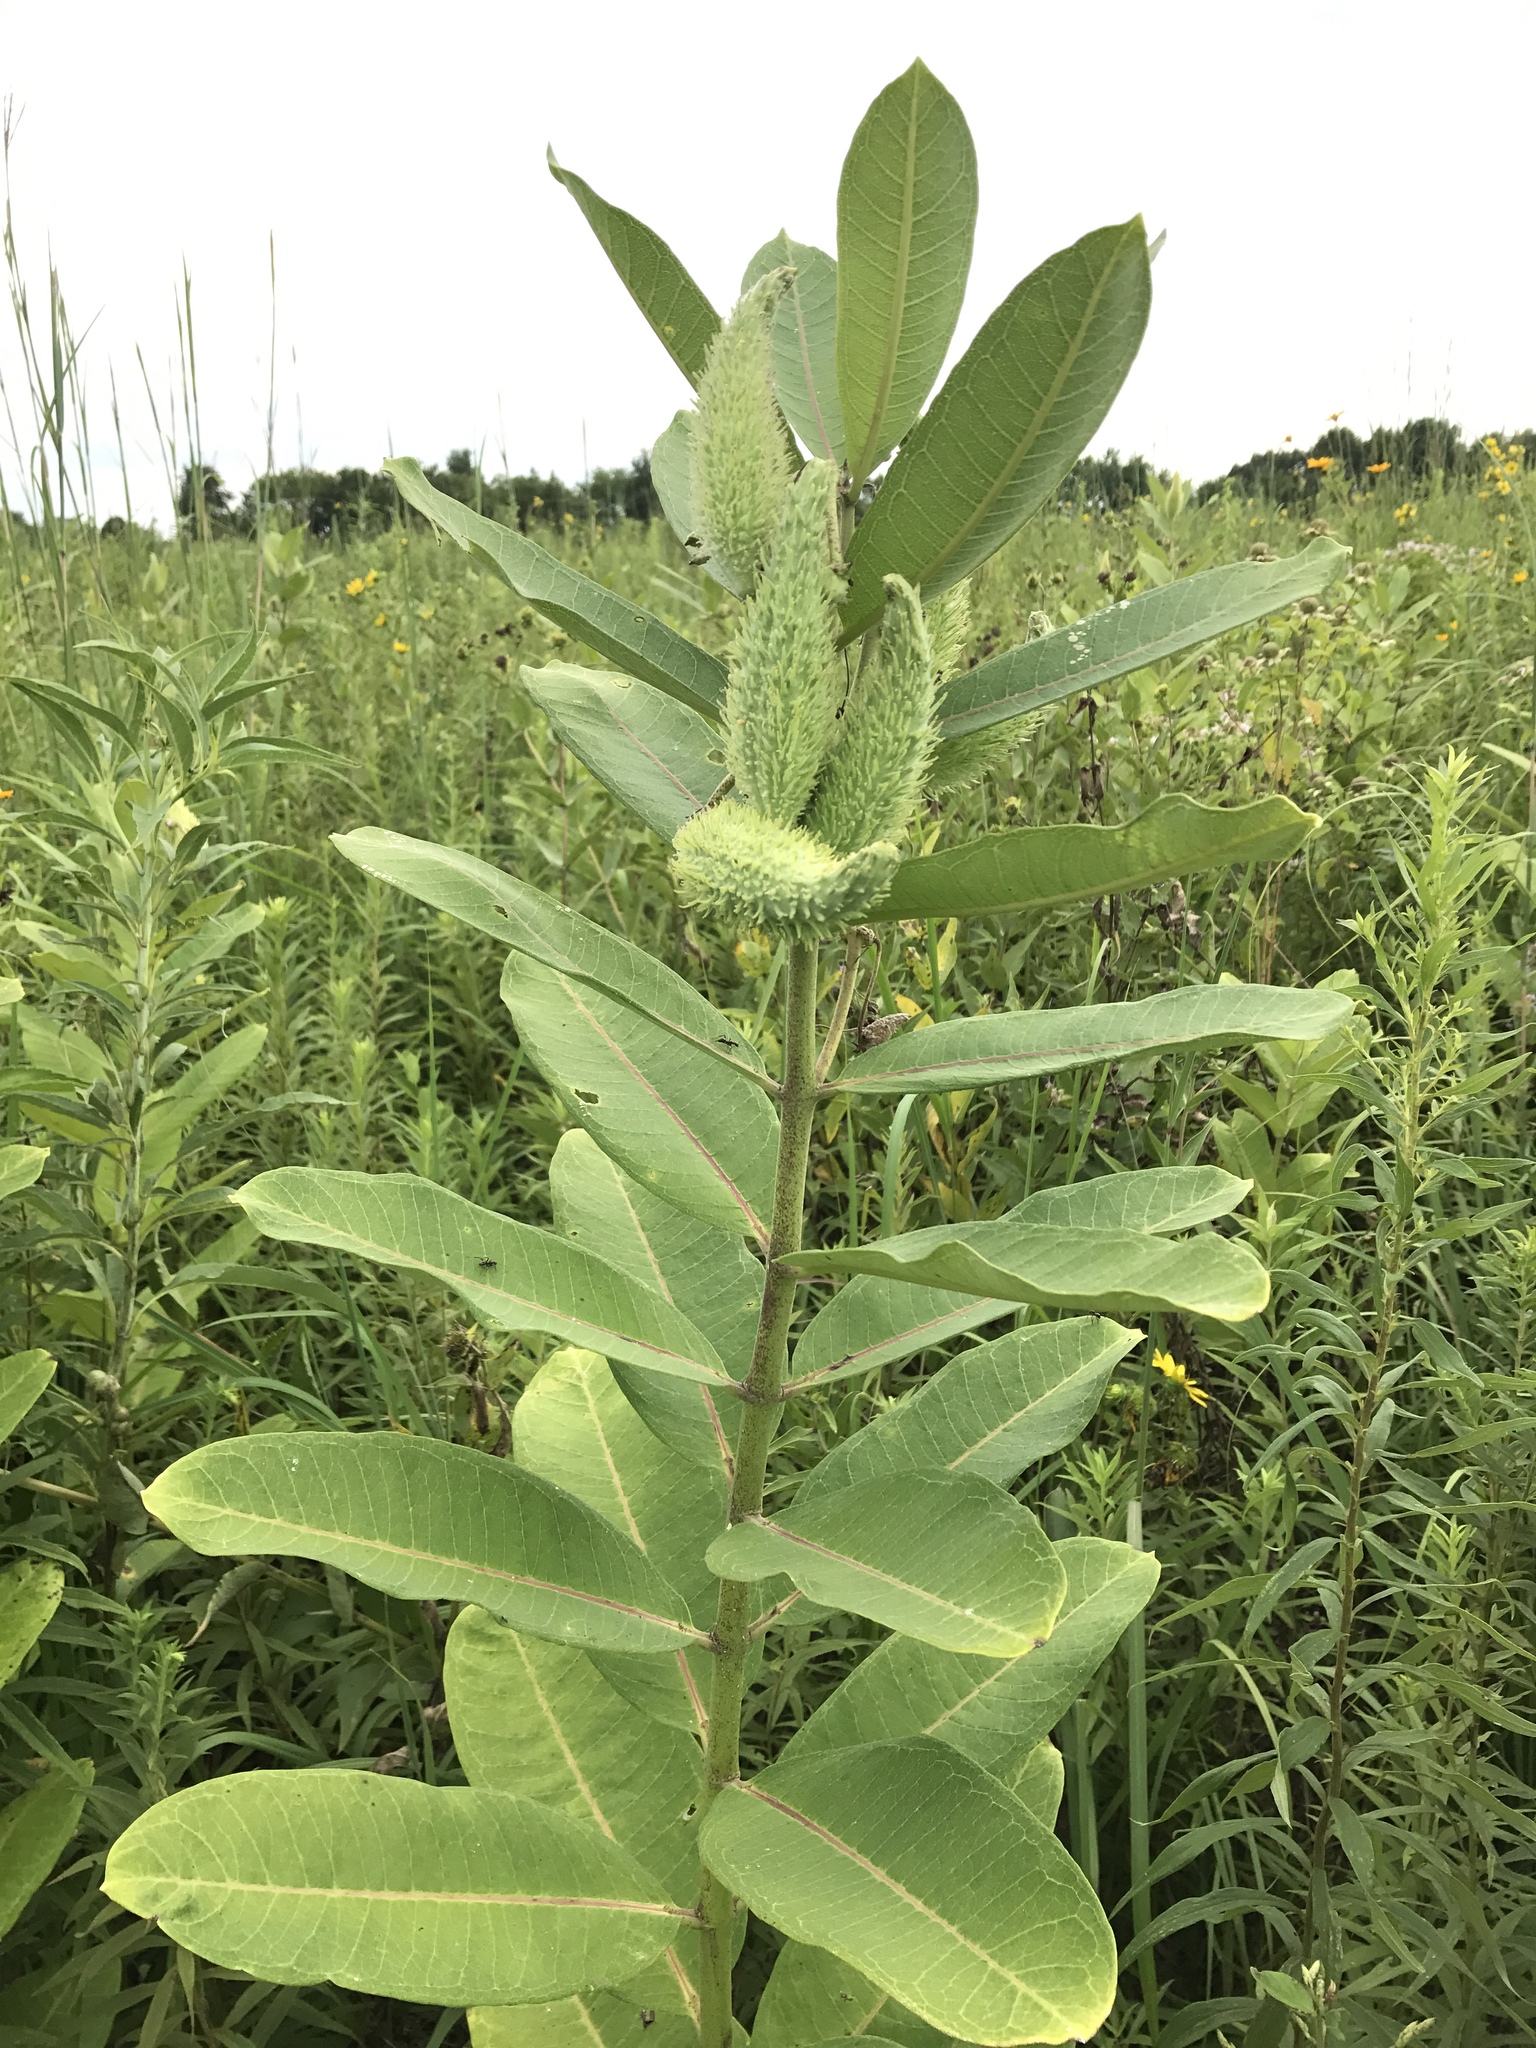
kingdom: Plantae
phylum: Tracheophyta
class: Magnoliopsida
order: Gentianales
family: Apocynaceae
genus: Asclepias
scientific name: Asclepias syriaca
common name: Common milkweed
